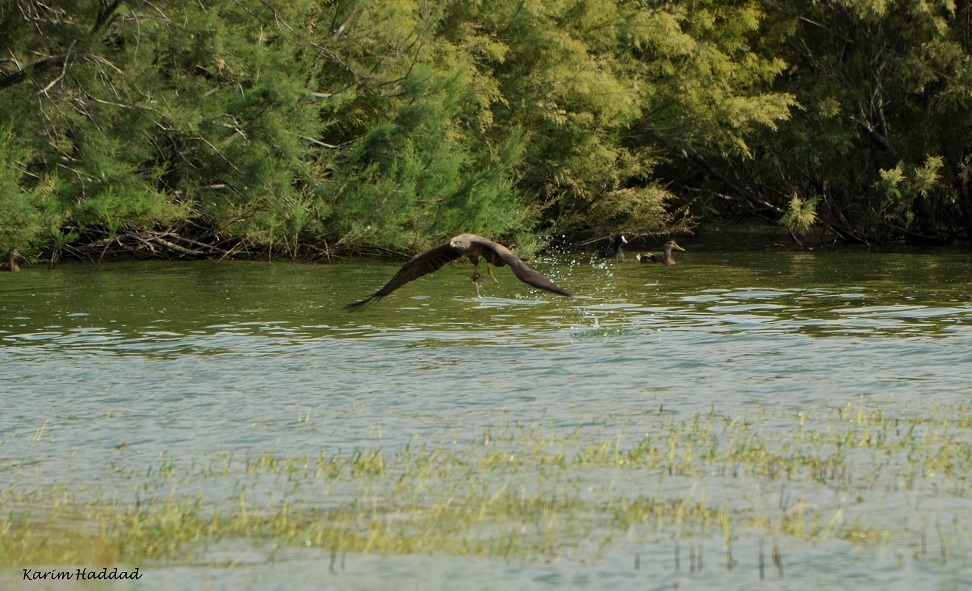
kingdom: Animalia
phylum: Chordata
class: Aves
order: Accipitriformes
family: Accipitridae
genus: Milvus
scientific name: Milvus migrans
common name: Black kite
